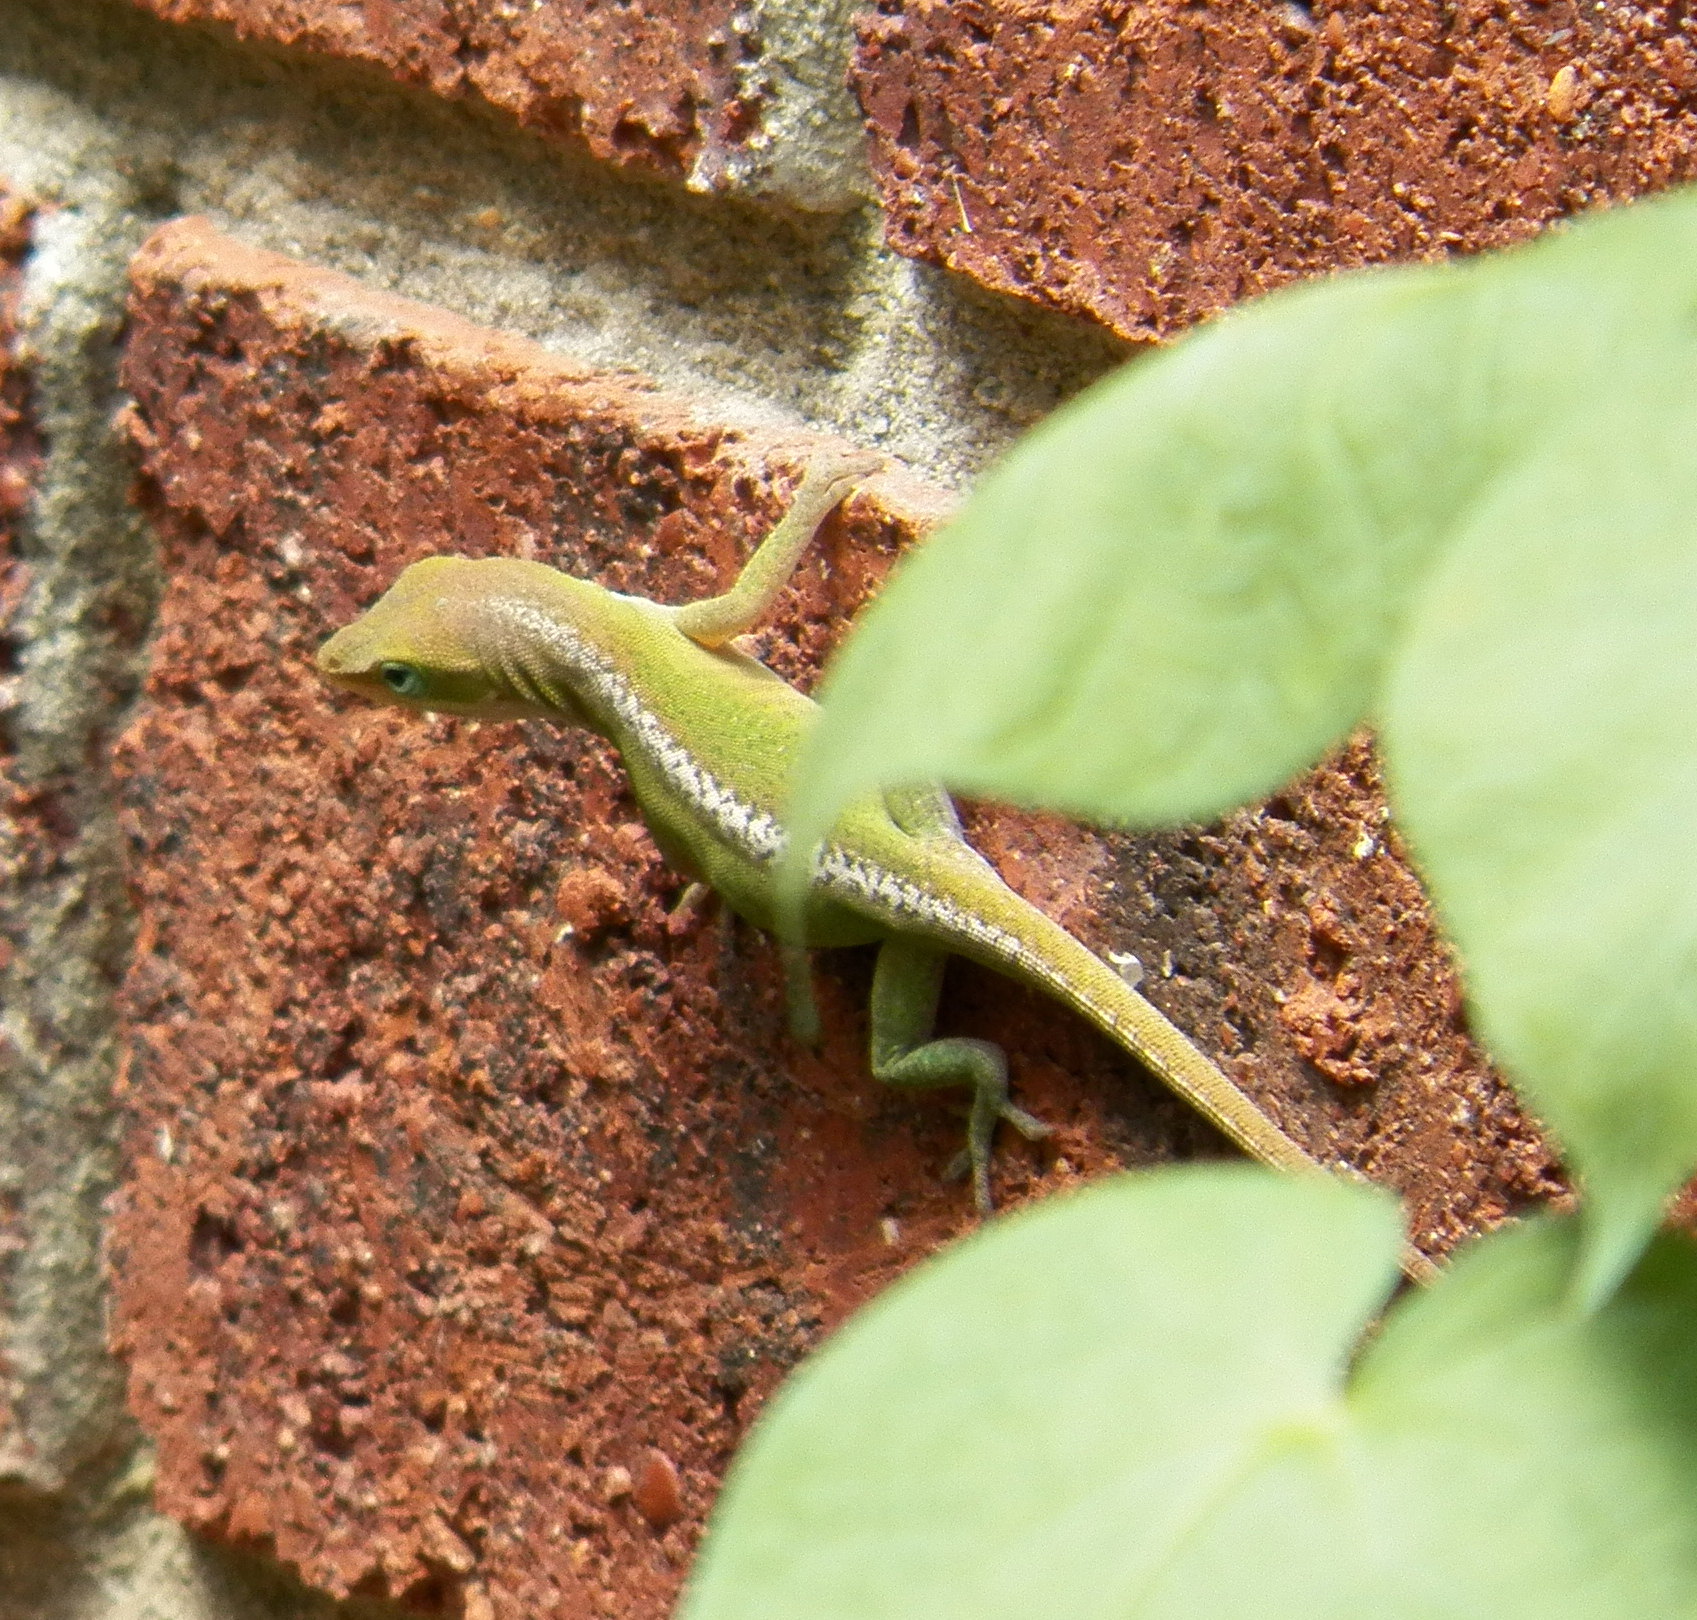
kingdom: Animalia
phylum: Chordata
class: Squamata
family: Dactyloidae
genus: Anolis
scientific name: Anolis carolinensis
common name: Green anole
